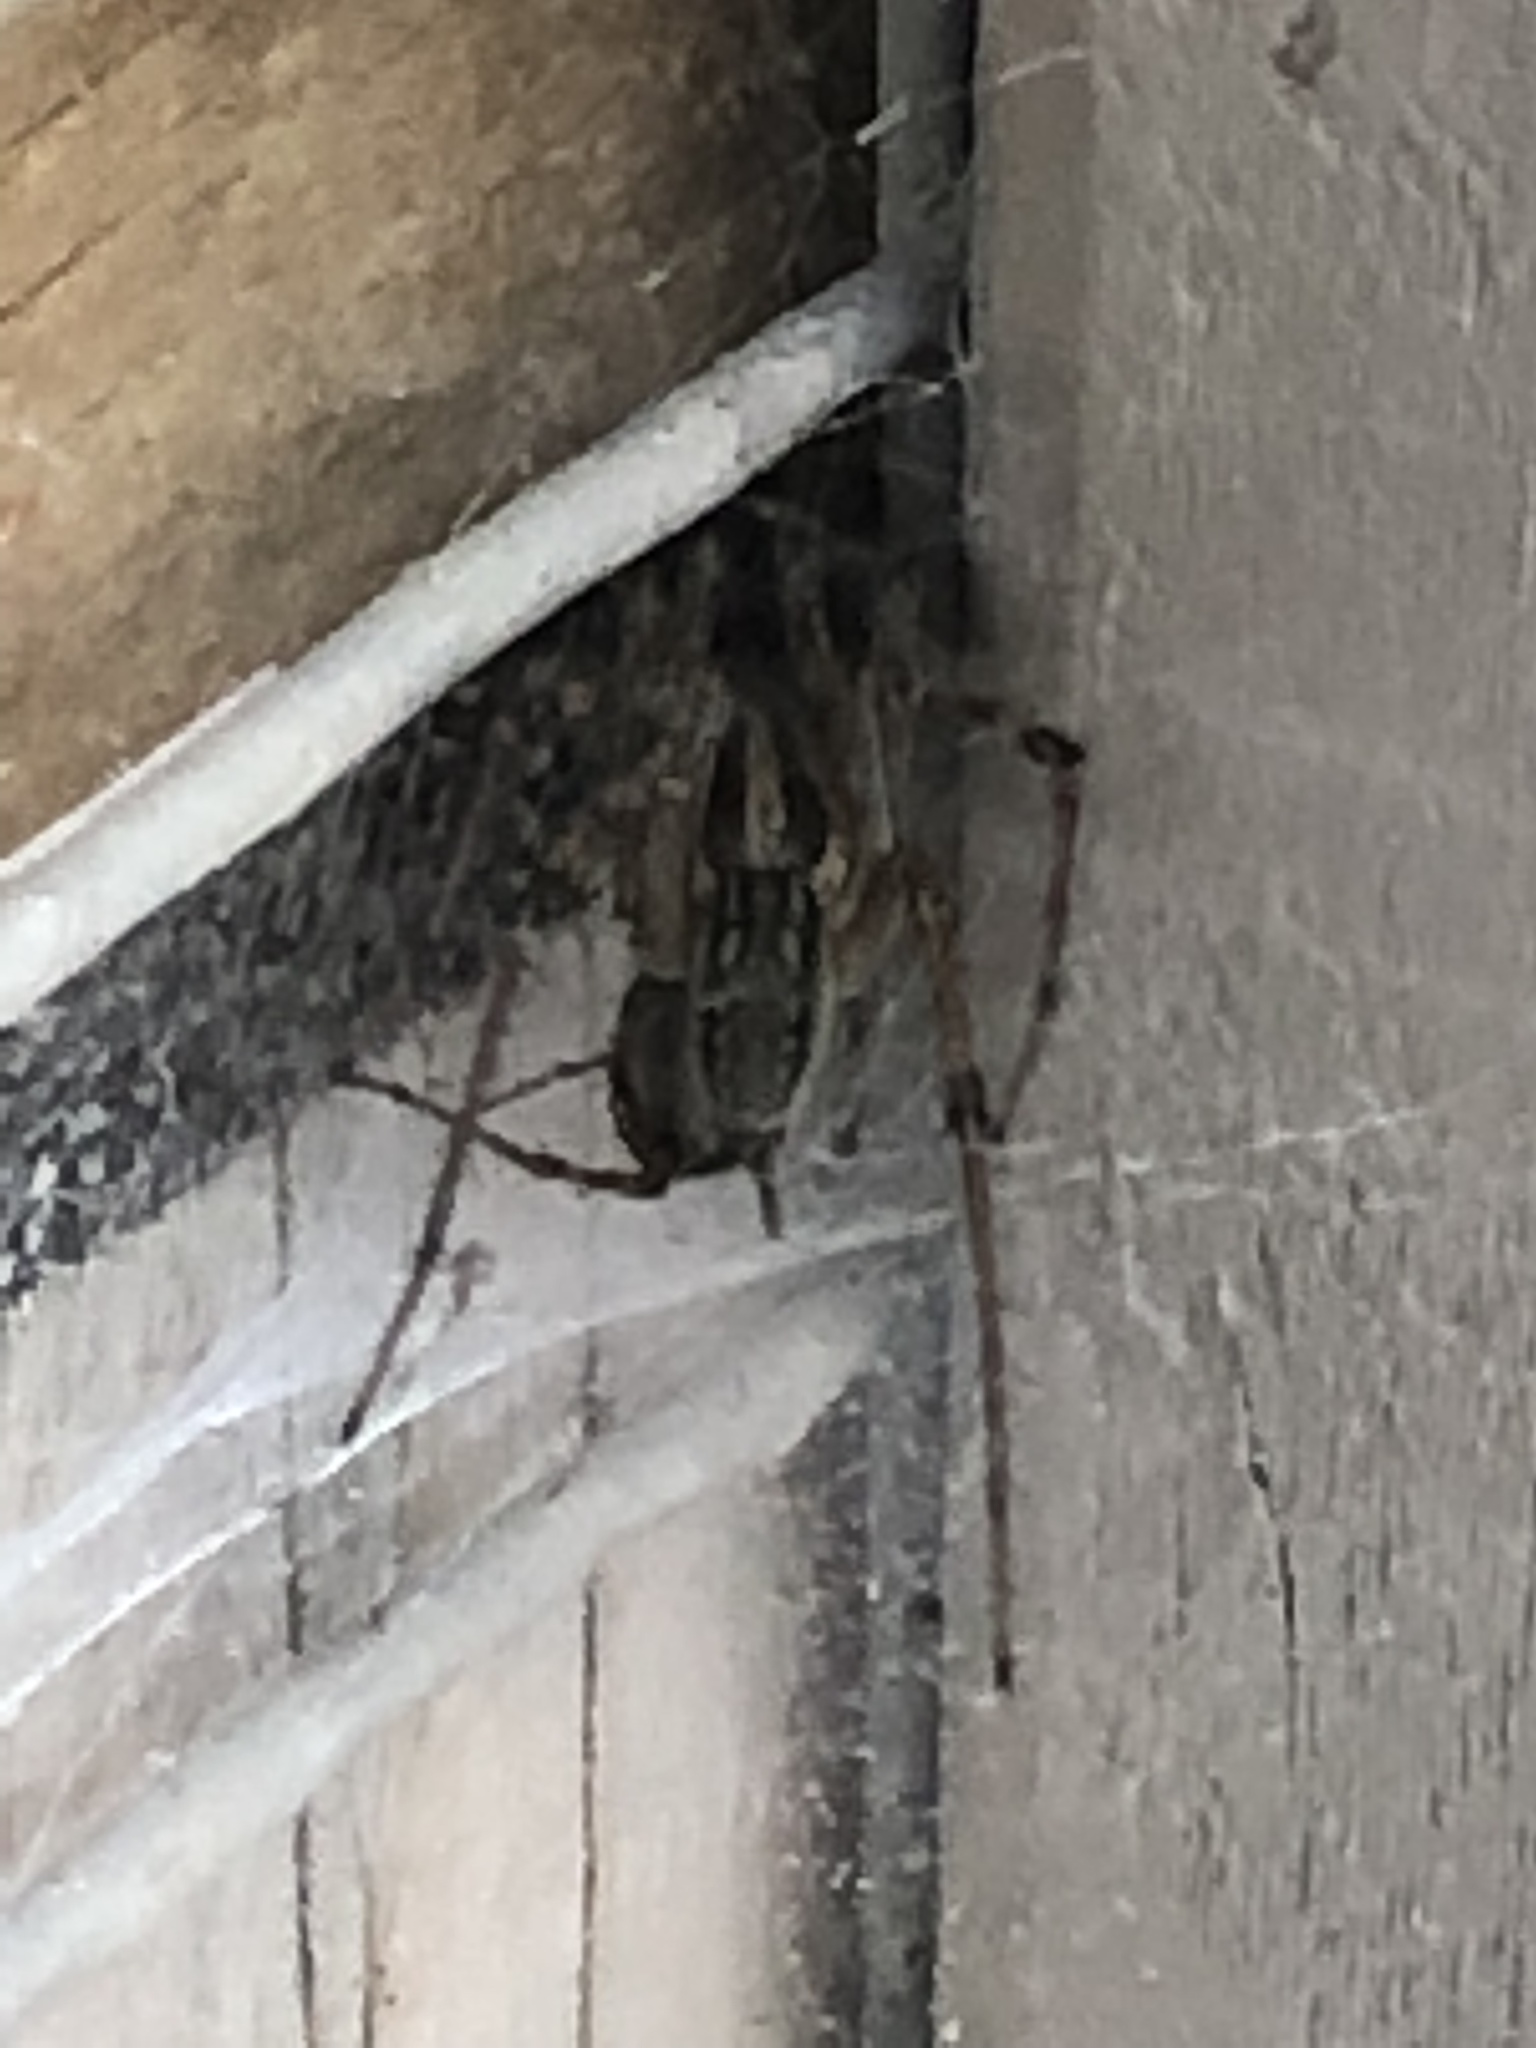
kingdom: Animalia
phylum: Arthropoda
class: Arachnida
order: Araneae
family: Agelenidae
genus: Agelenopsis
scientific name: Agelenopsis
